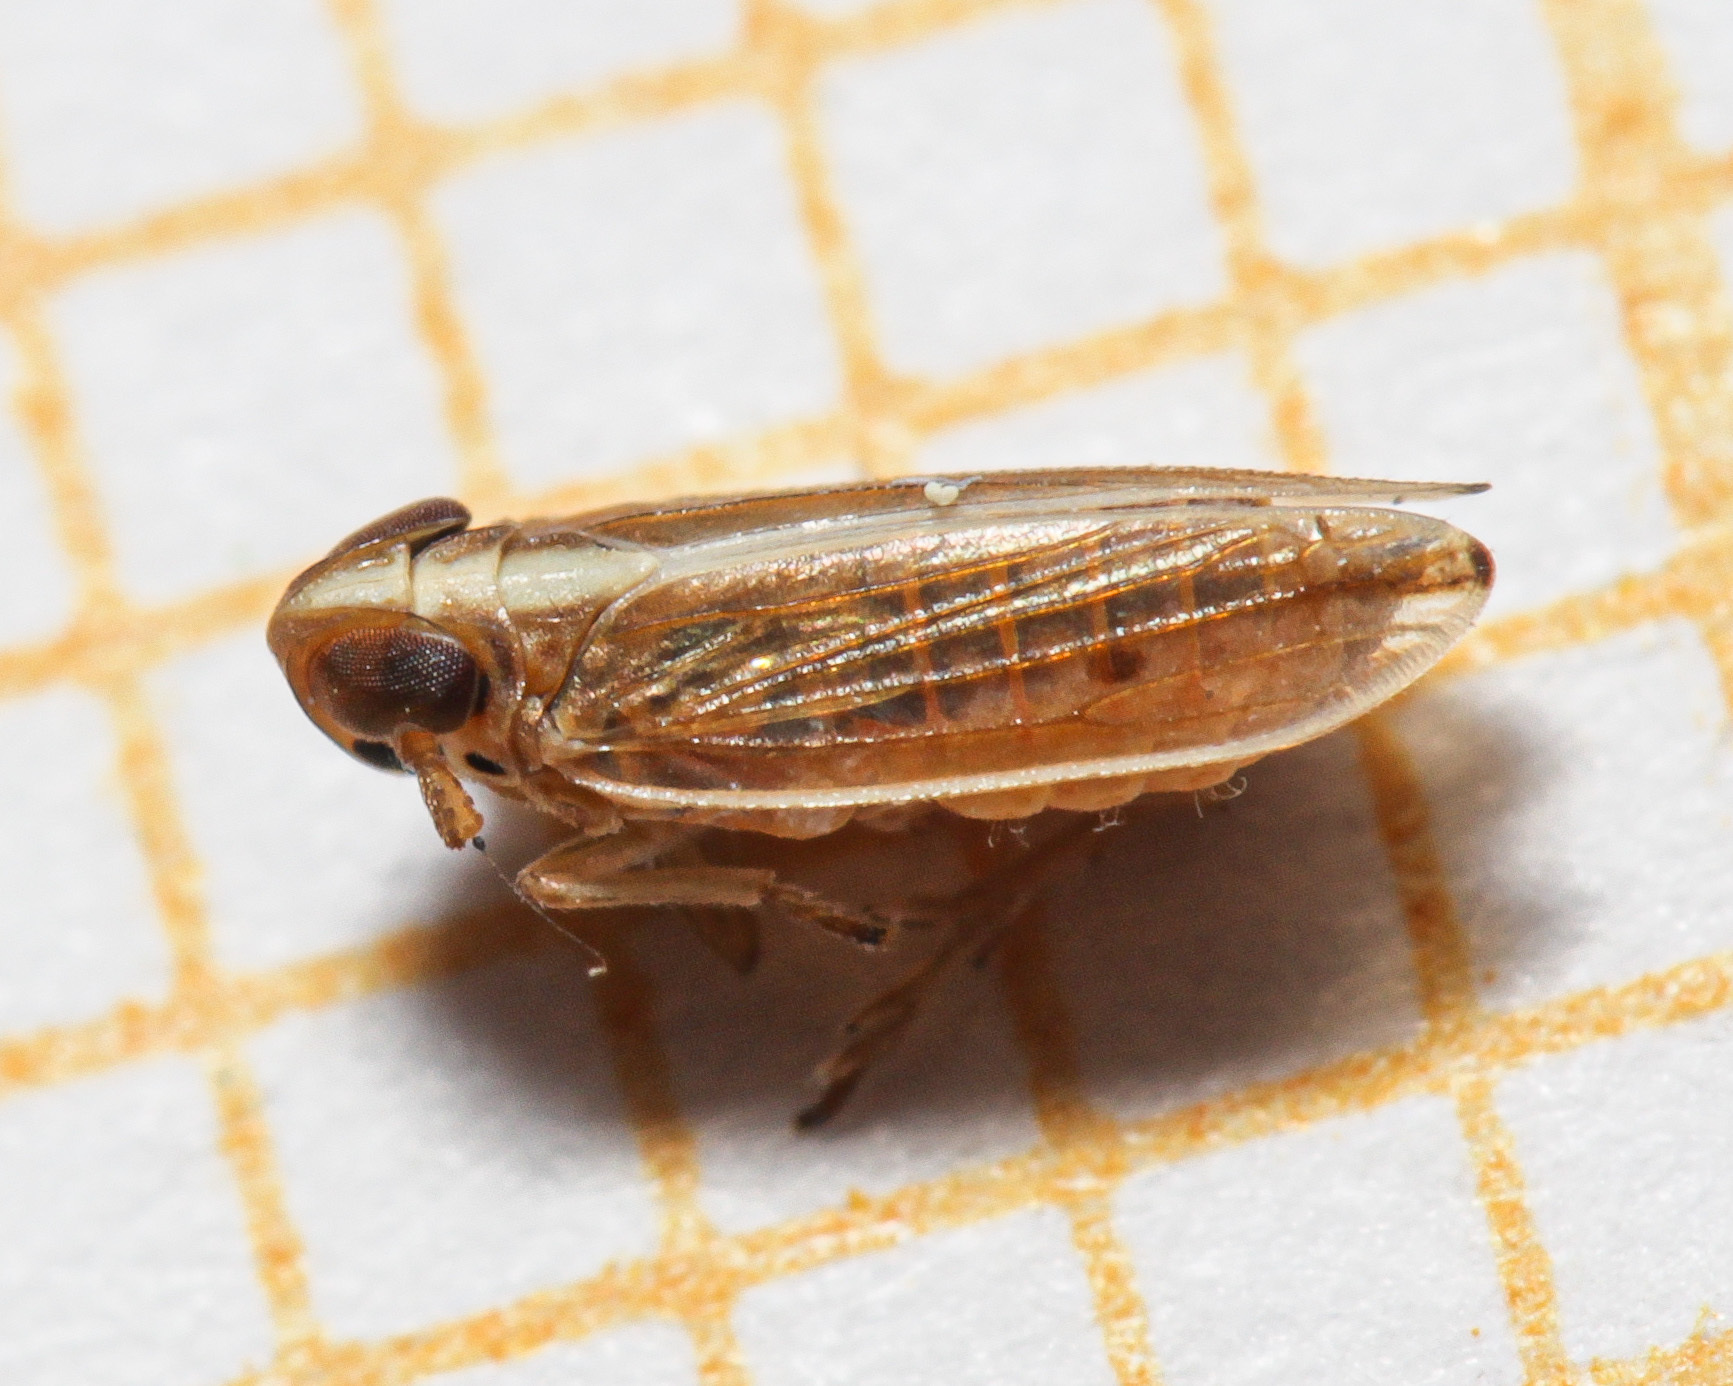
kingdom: Animalia
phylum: Arthropoda
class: Insecta
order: Hemiptera
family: Delphacidae
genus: Kelisia
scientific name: Kelisia praecox
